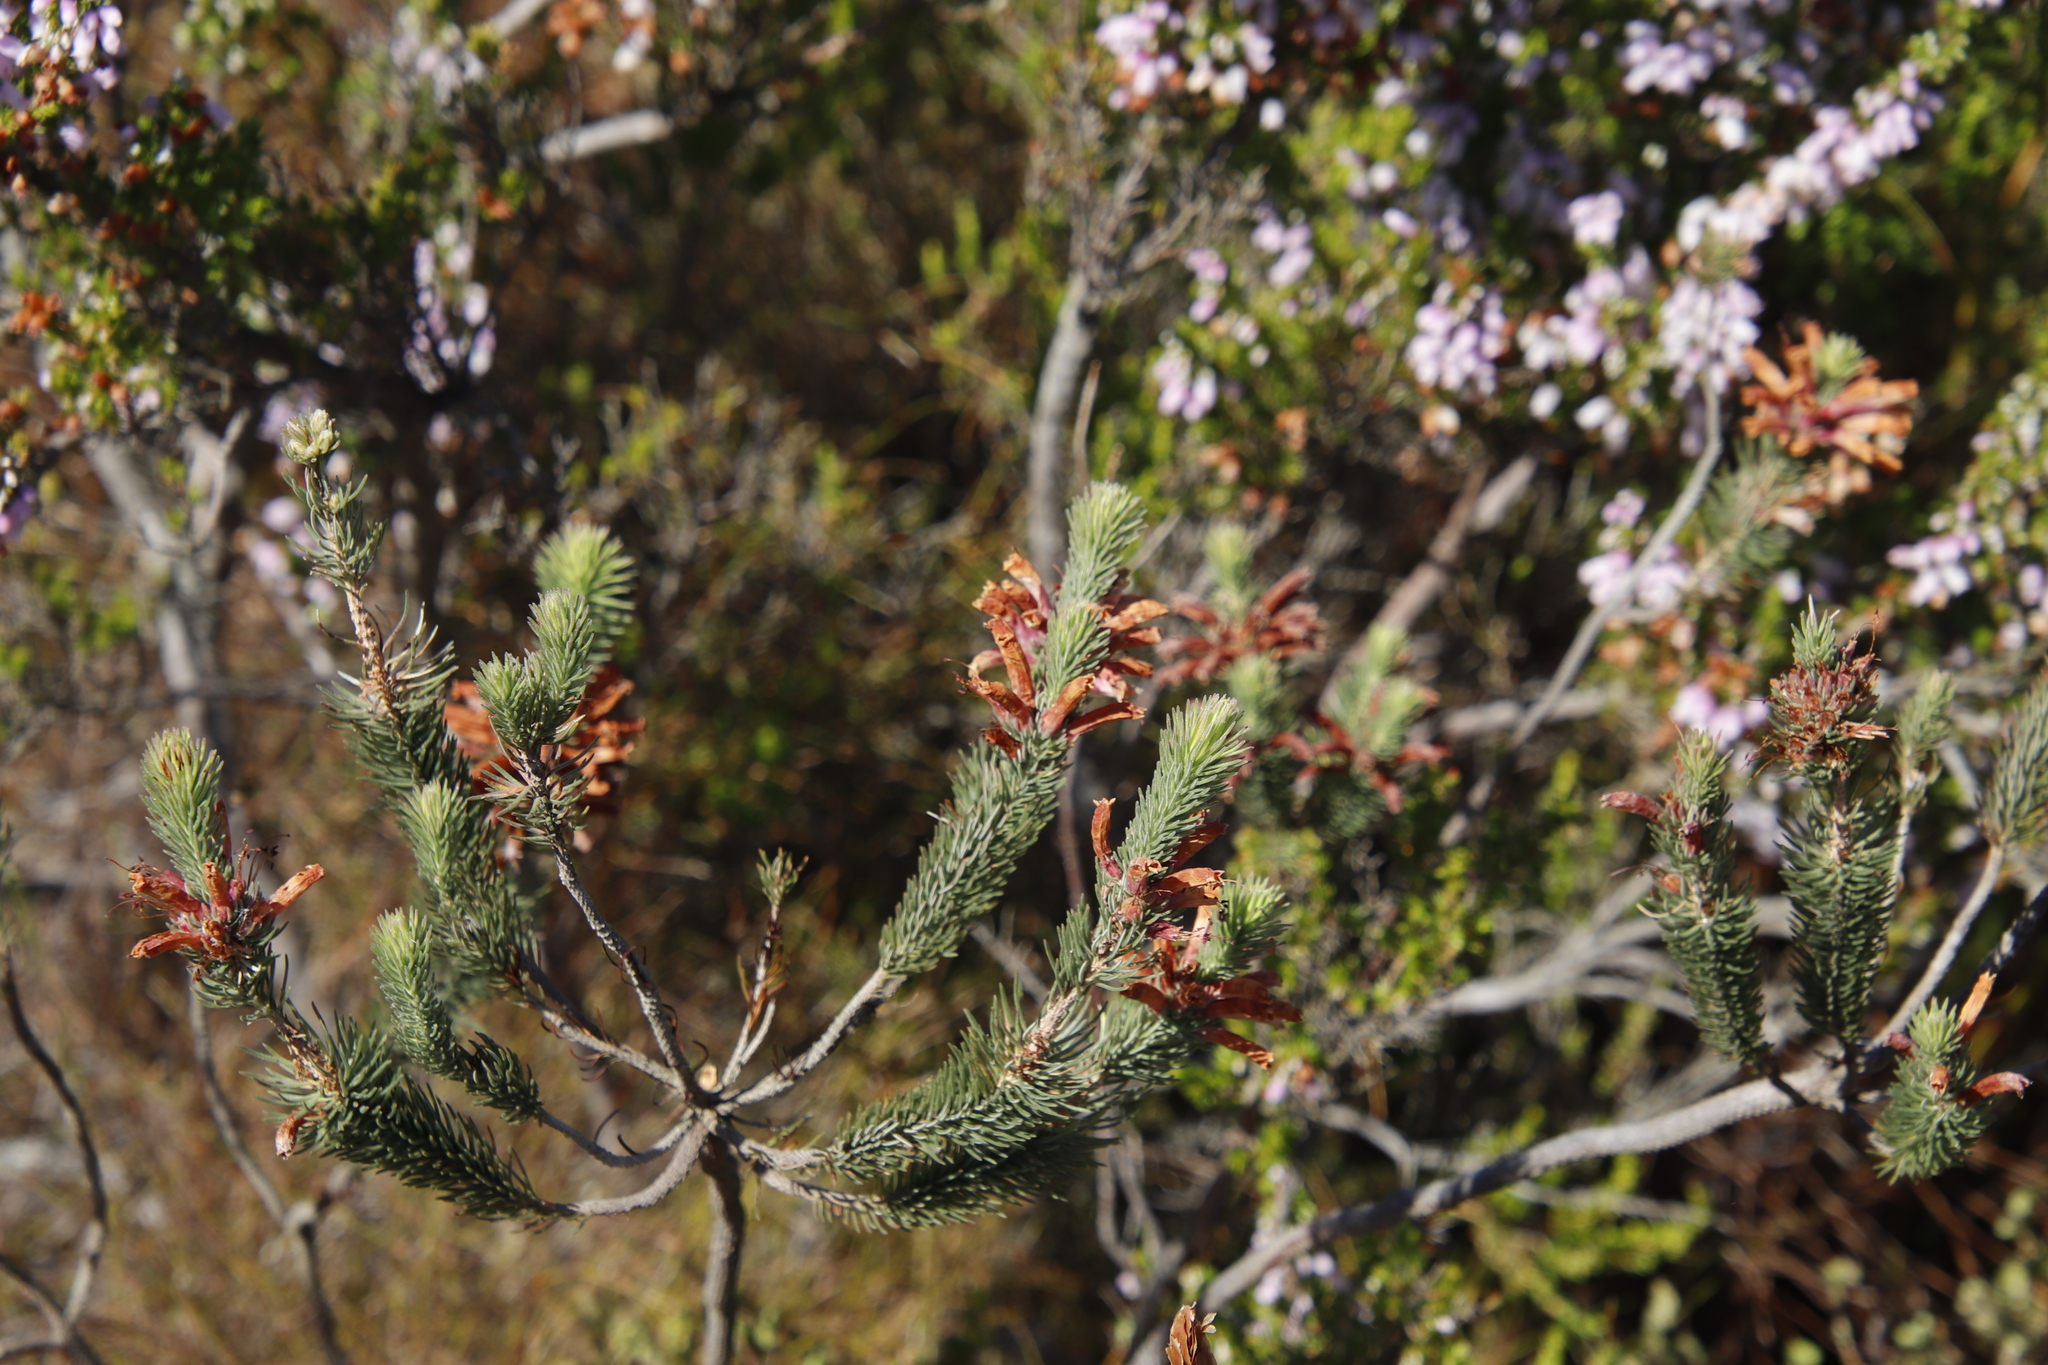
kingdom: Plantae
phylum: Tracheophyta
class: Magnoliopsida
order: Ericales
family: Ericaceae
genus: Erica
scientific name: Erica viscaria
